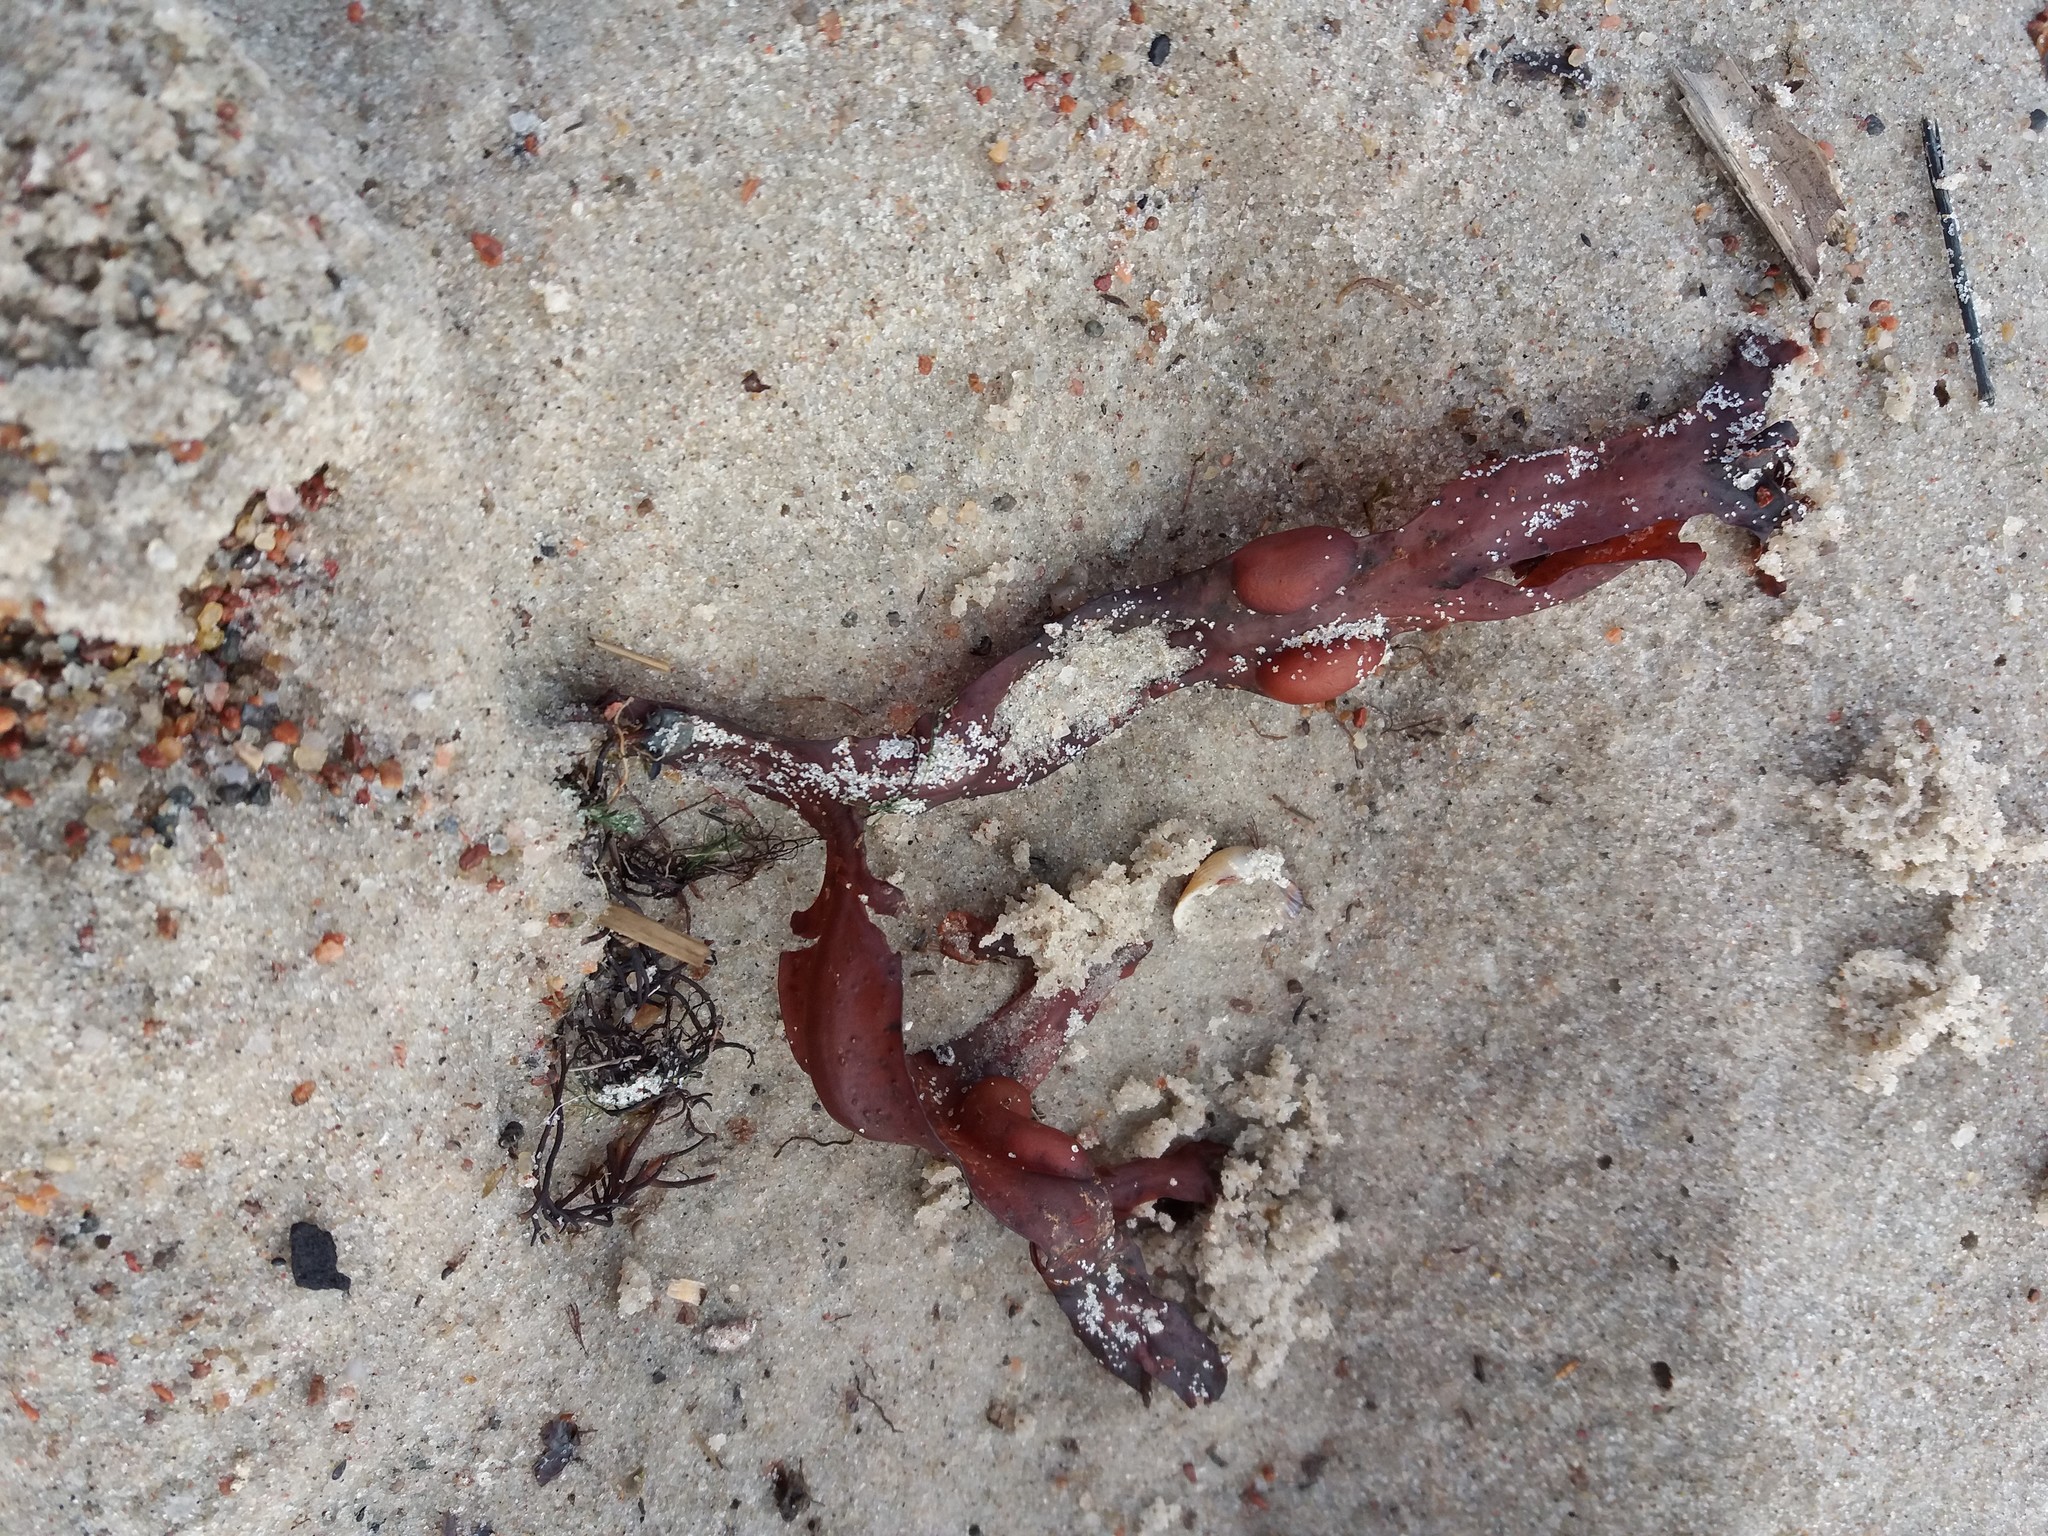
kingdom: Chromista
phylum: Ochrophyta
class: Phaeophyceae
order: Fucales
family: Fucaceae
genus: Fucus
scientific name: Fucus vesiculosus
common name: Bladder wrack
